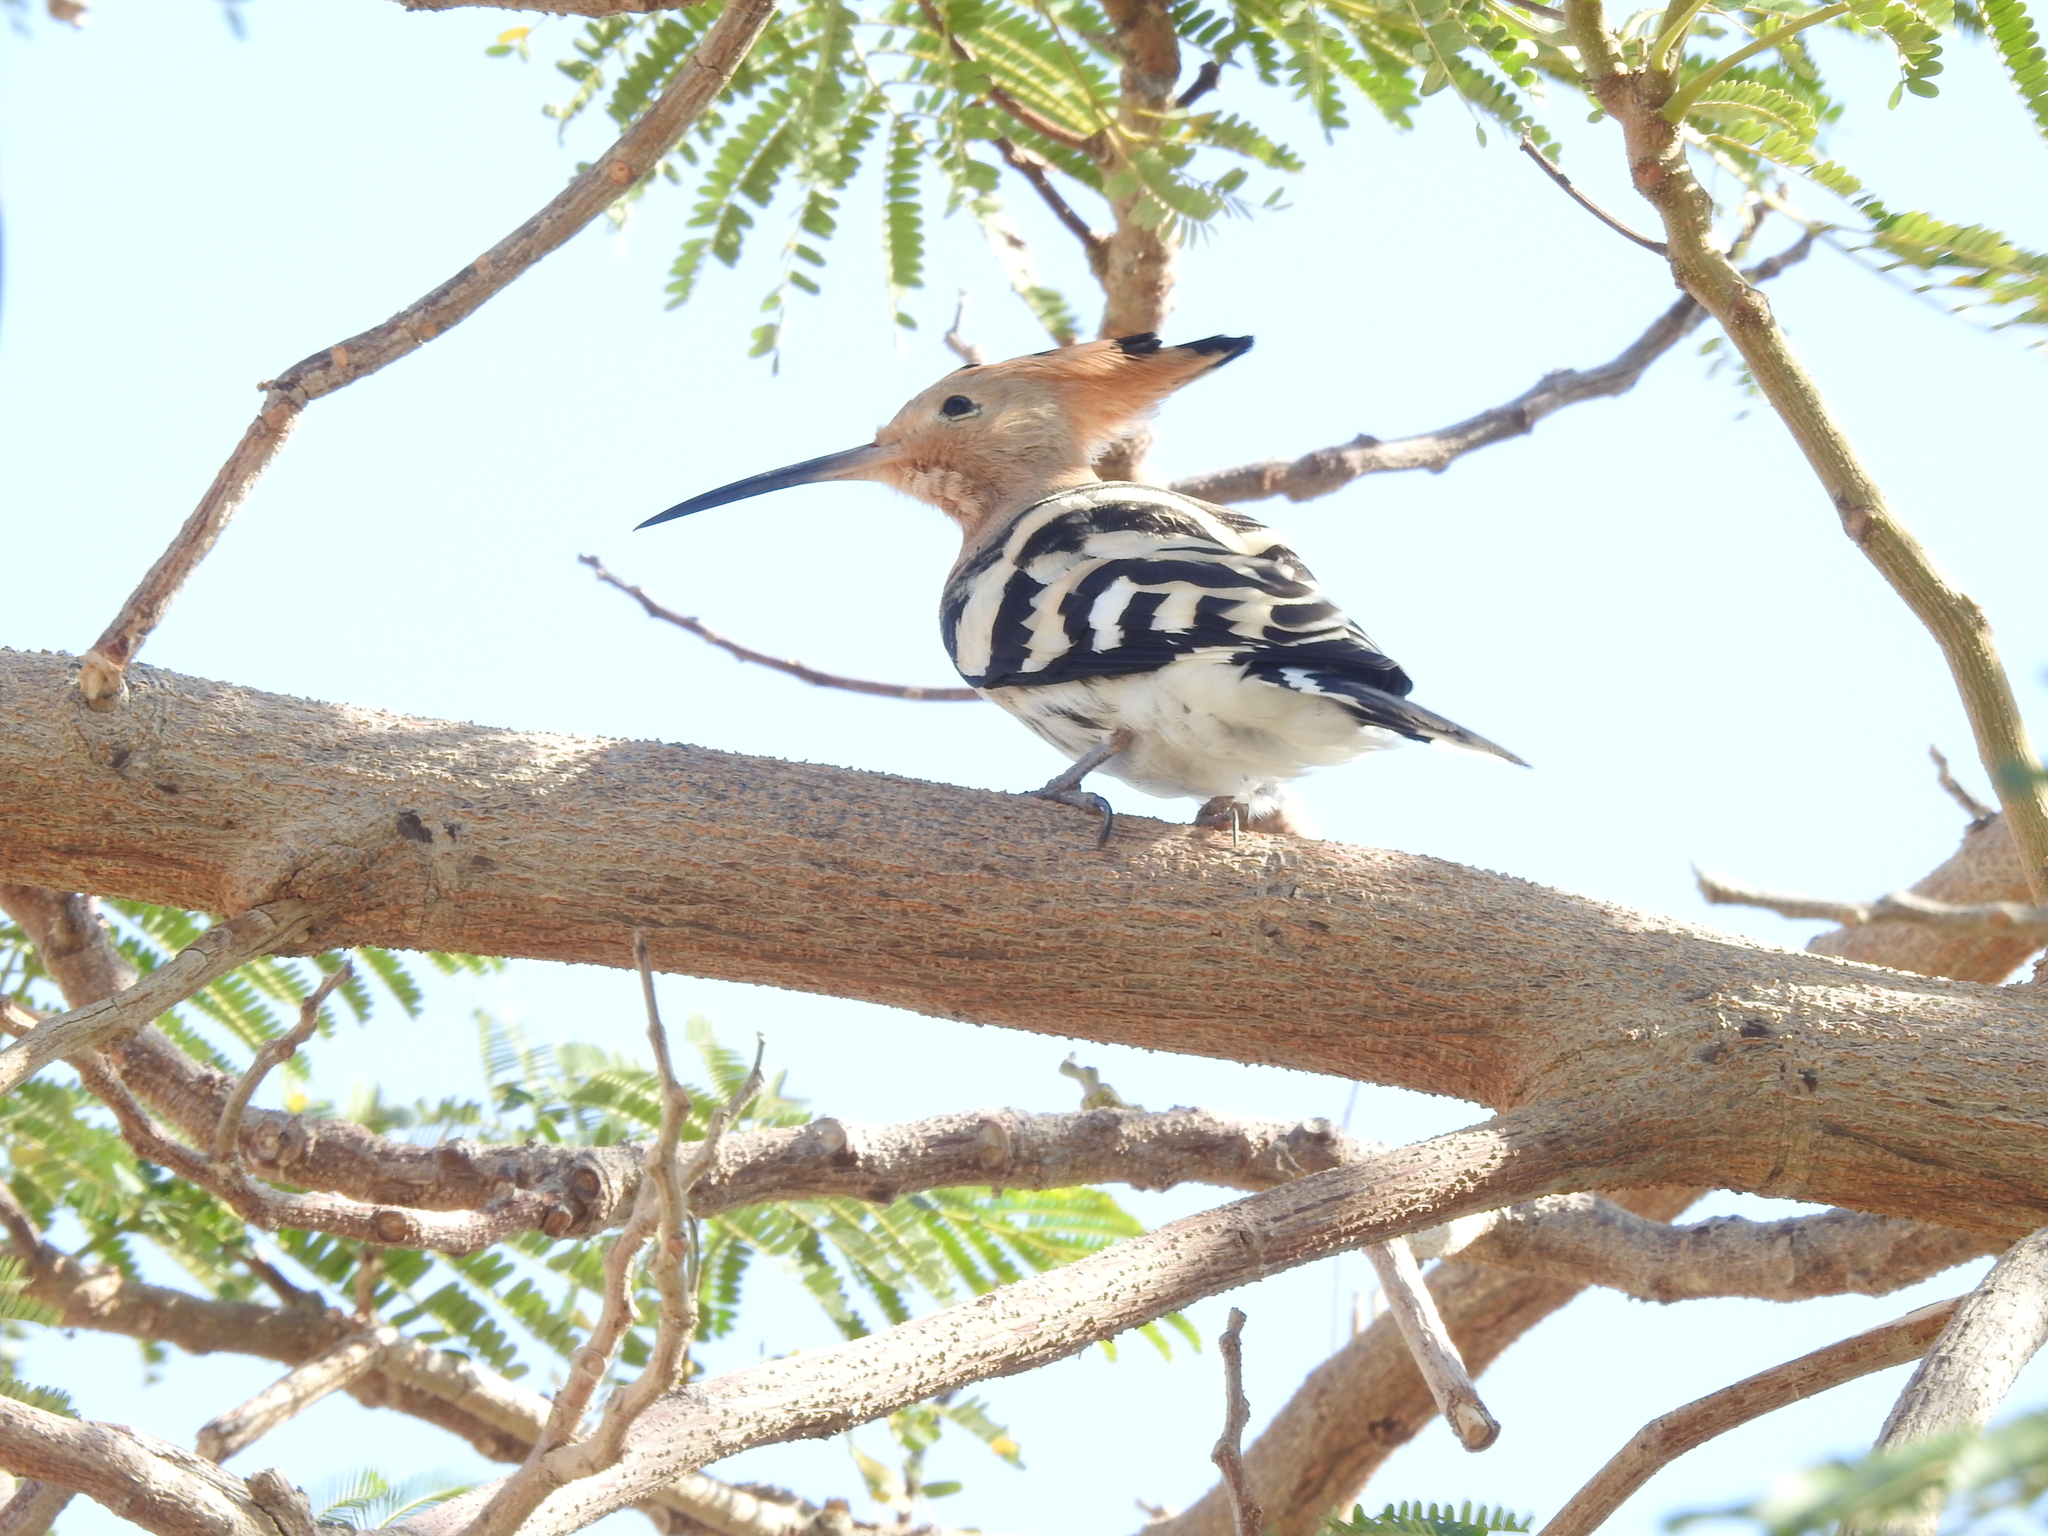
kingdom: Animalia
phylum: Chordata
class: Aves
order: Bucerotiformes
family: Upupidae
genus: Upupa
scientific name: Upupa epops
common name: Eurasian hoopoe
